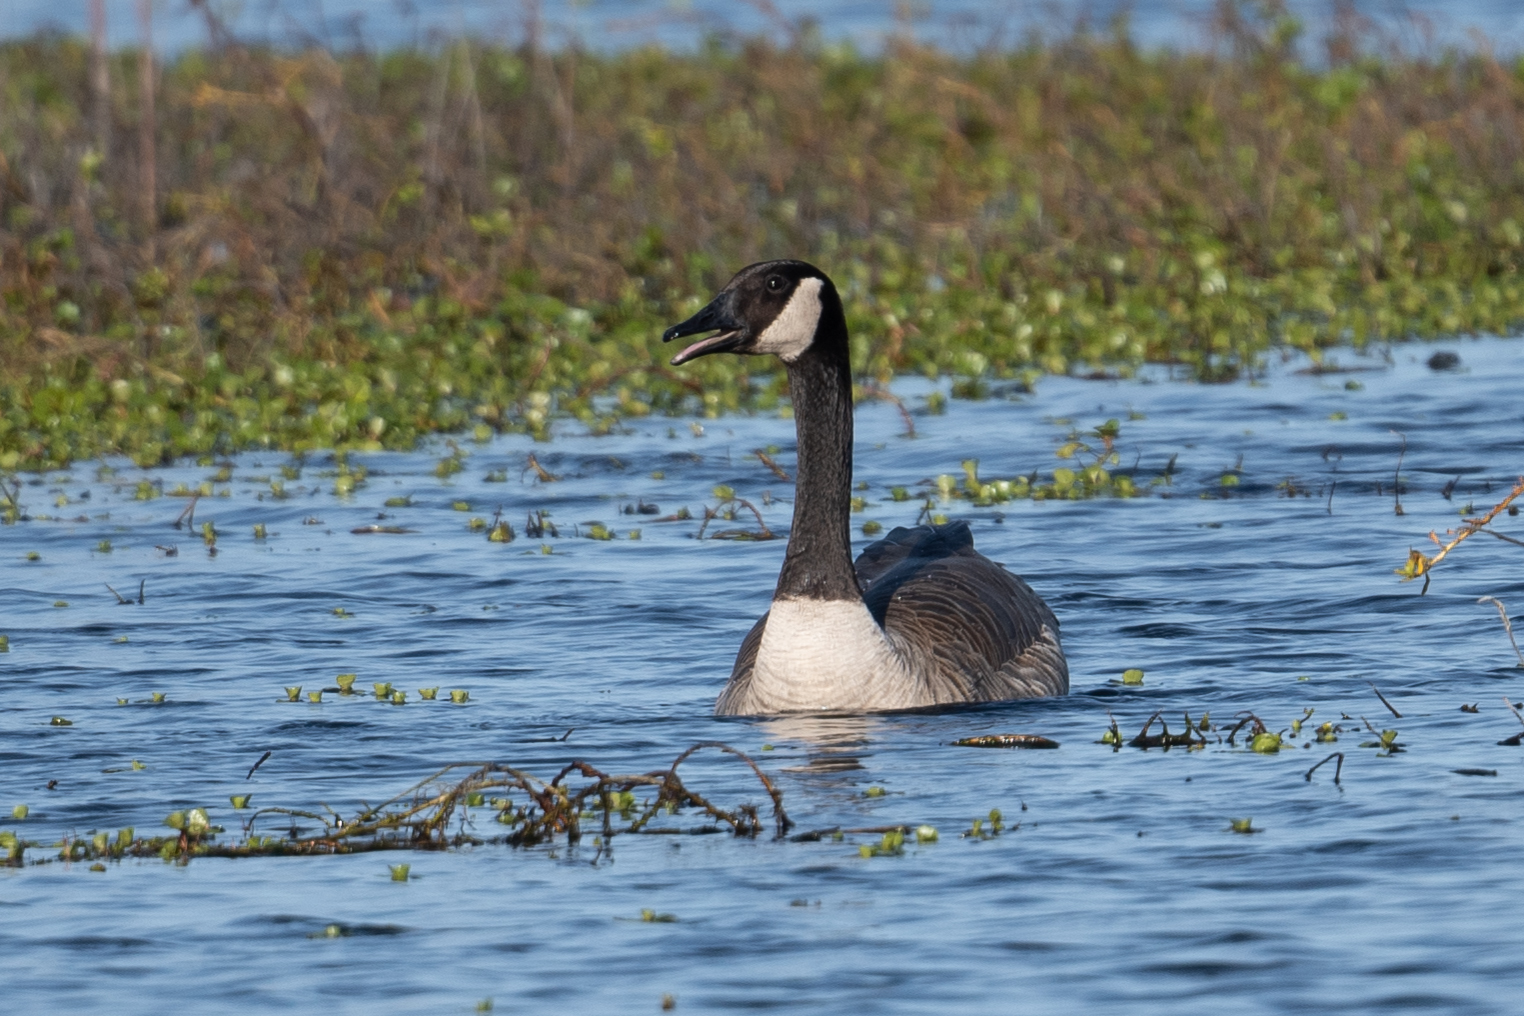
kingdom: Animalia
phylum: Chordata
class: Aves
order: Anseriformes
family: Anatidae
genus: Branta
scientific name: Branta canadensis
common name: Canada goose
